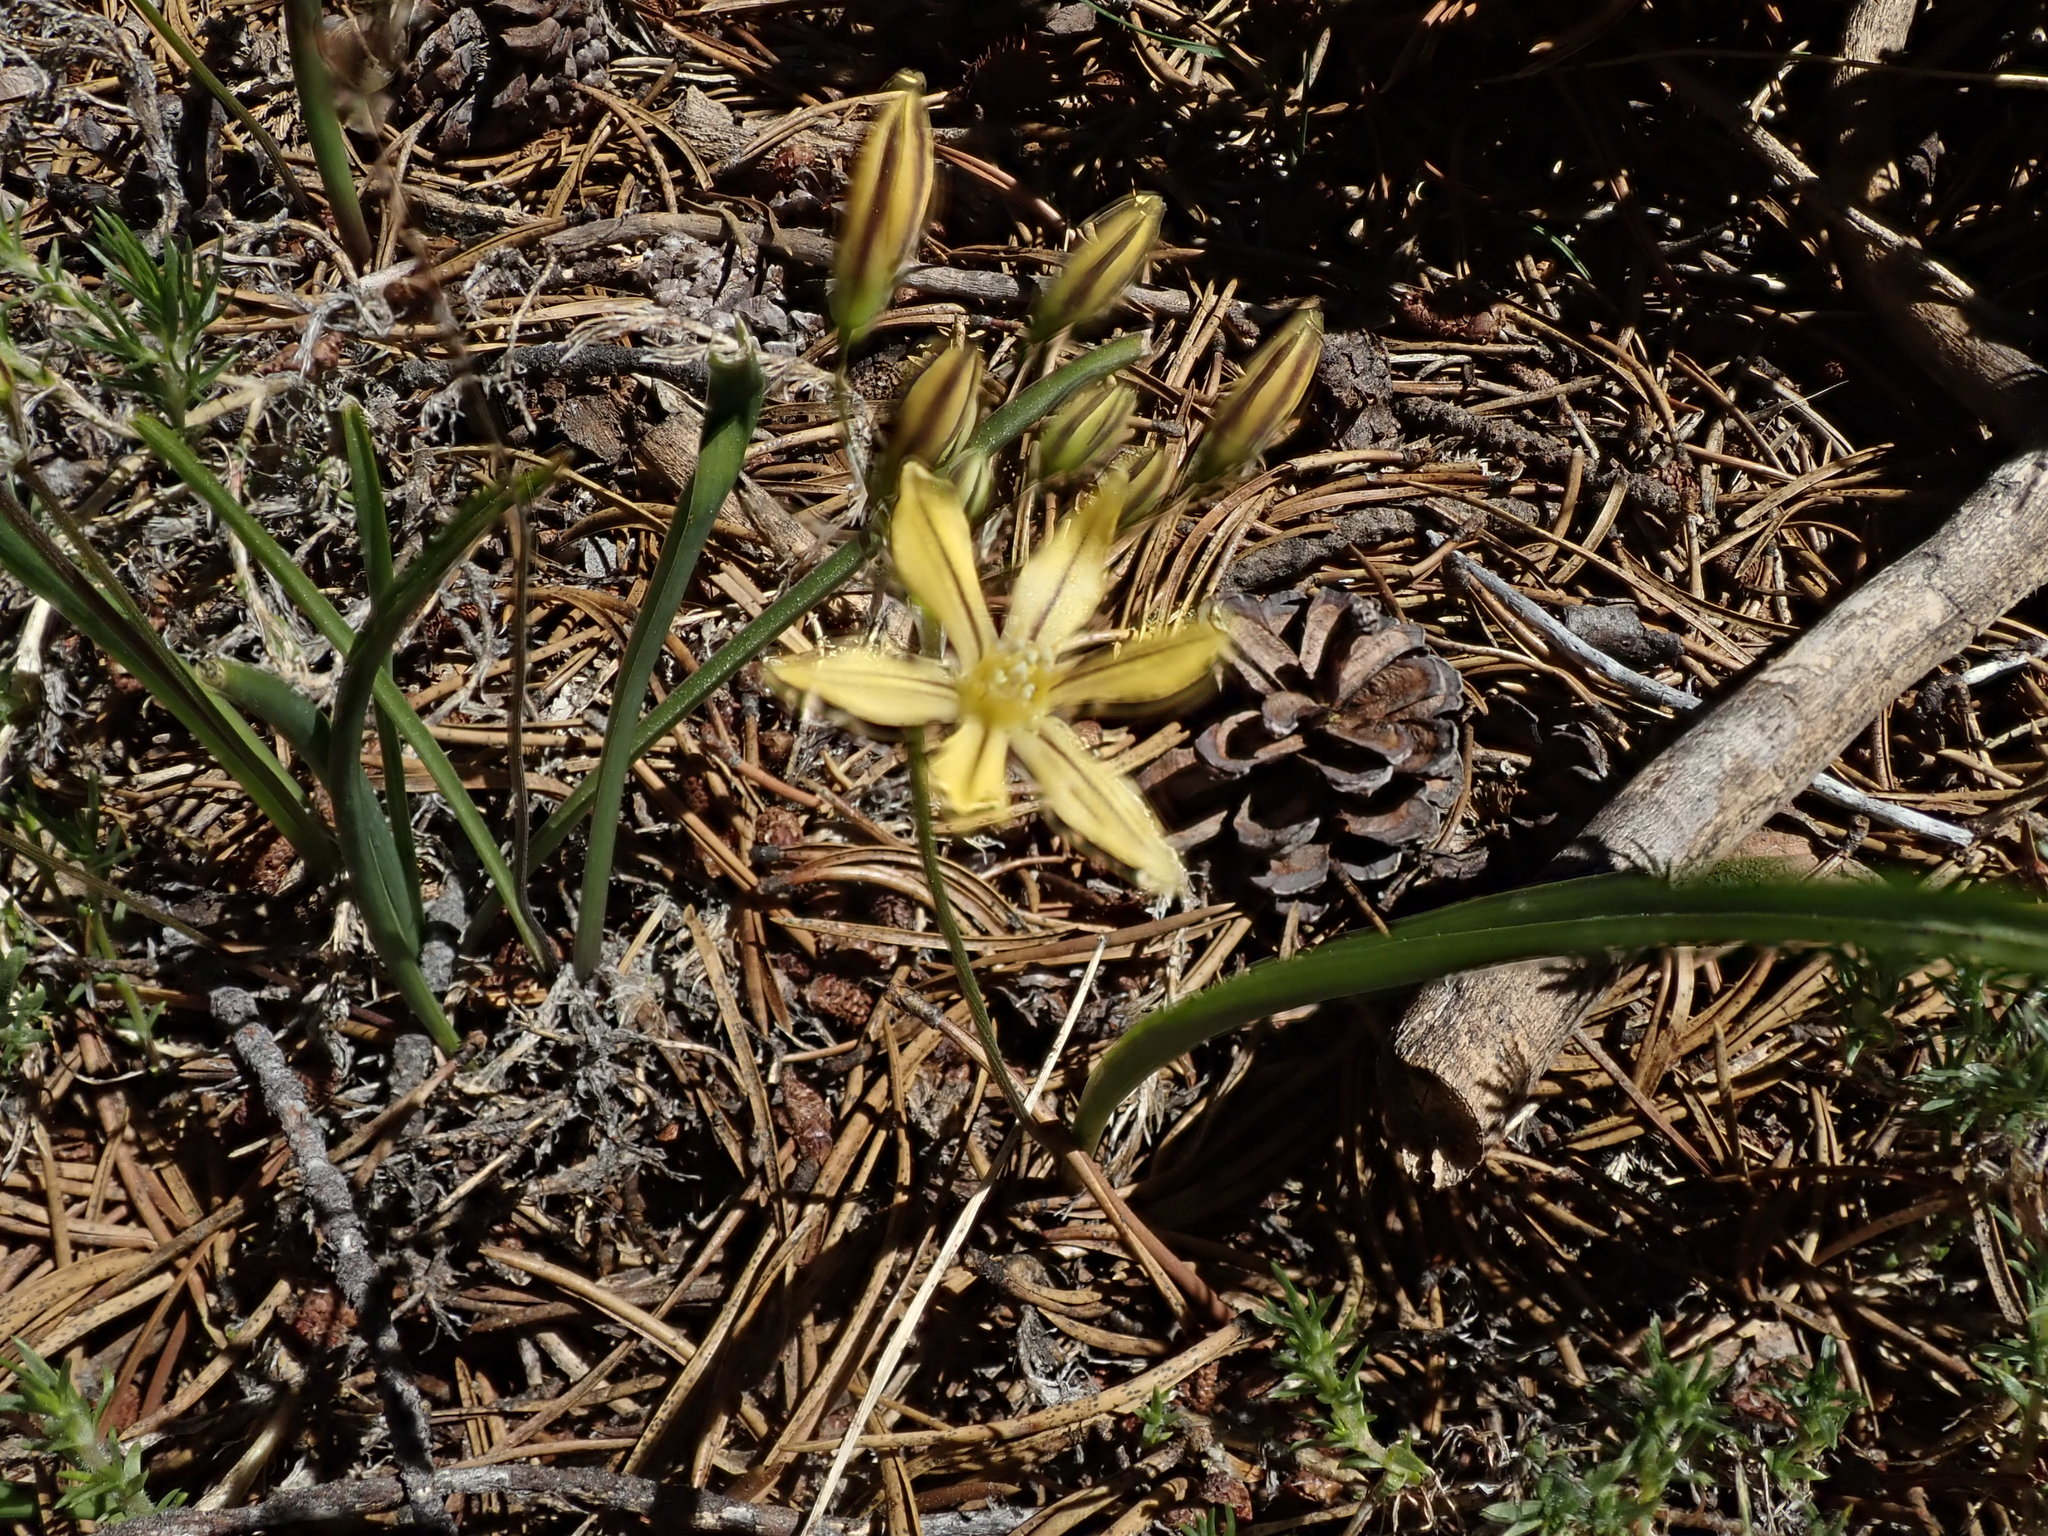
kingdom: Plantae
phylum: Tracheophyta
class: Liliopsida
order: Asparagales
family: Asparagaceae
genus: Triteleia
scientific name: Triteleia ixioides
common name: Yellow-brodiaea
